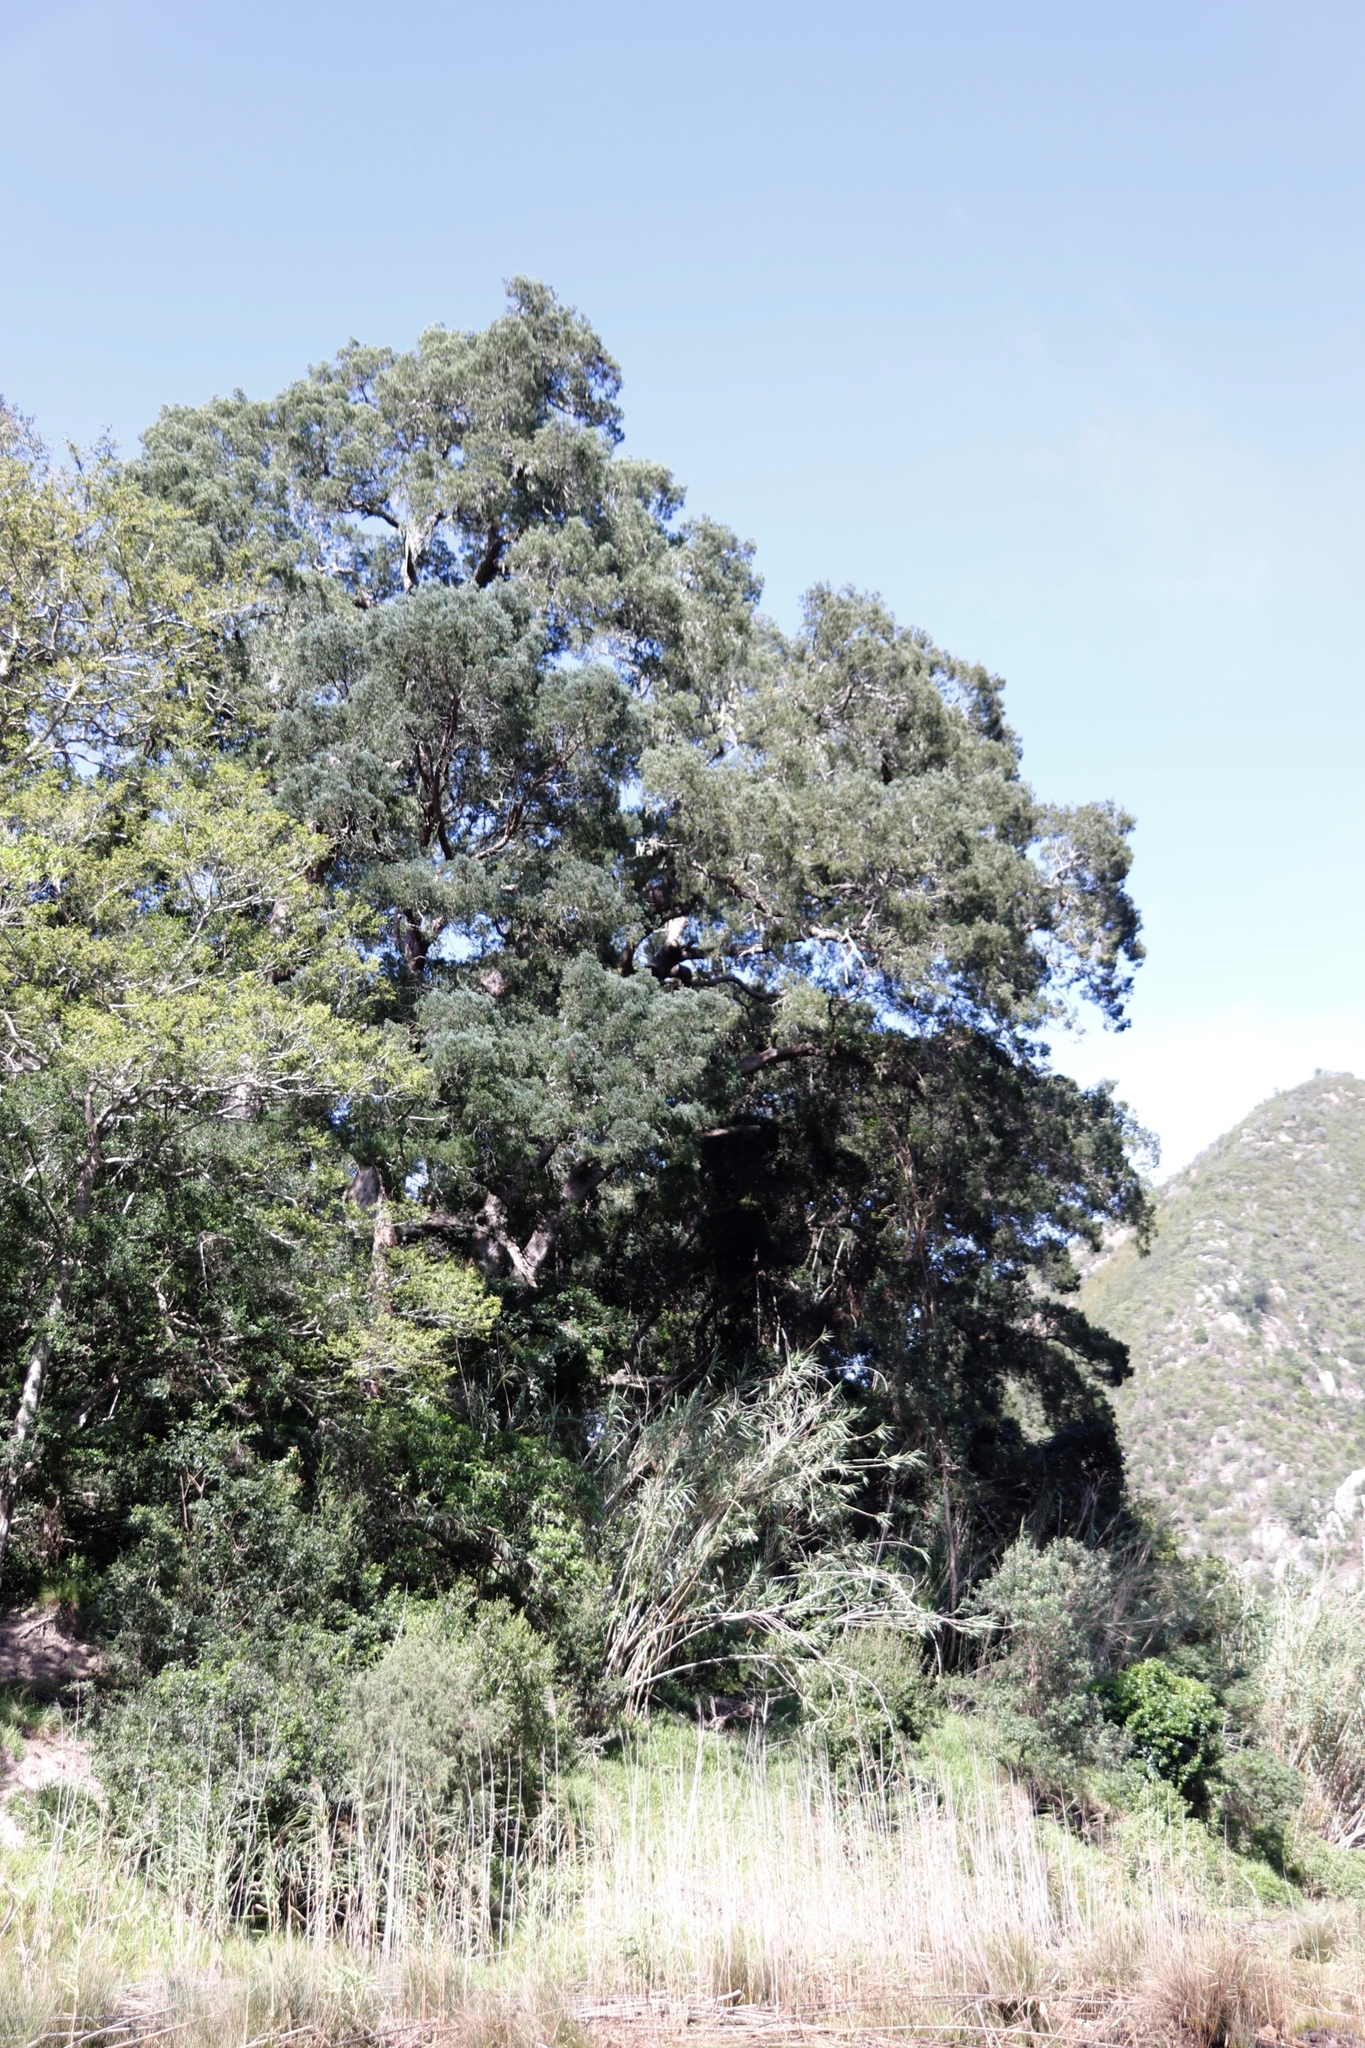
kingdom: Plantae
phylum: Tracheophyta
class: Pinopsida
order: Pinales
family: Podocarpaceae
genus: Afrocarpus
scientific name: Afrocarpus falcatus
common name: Bastard yellowwood
